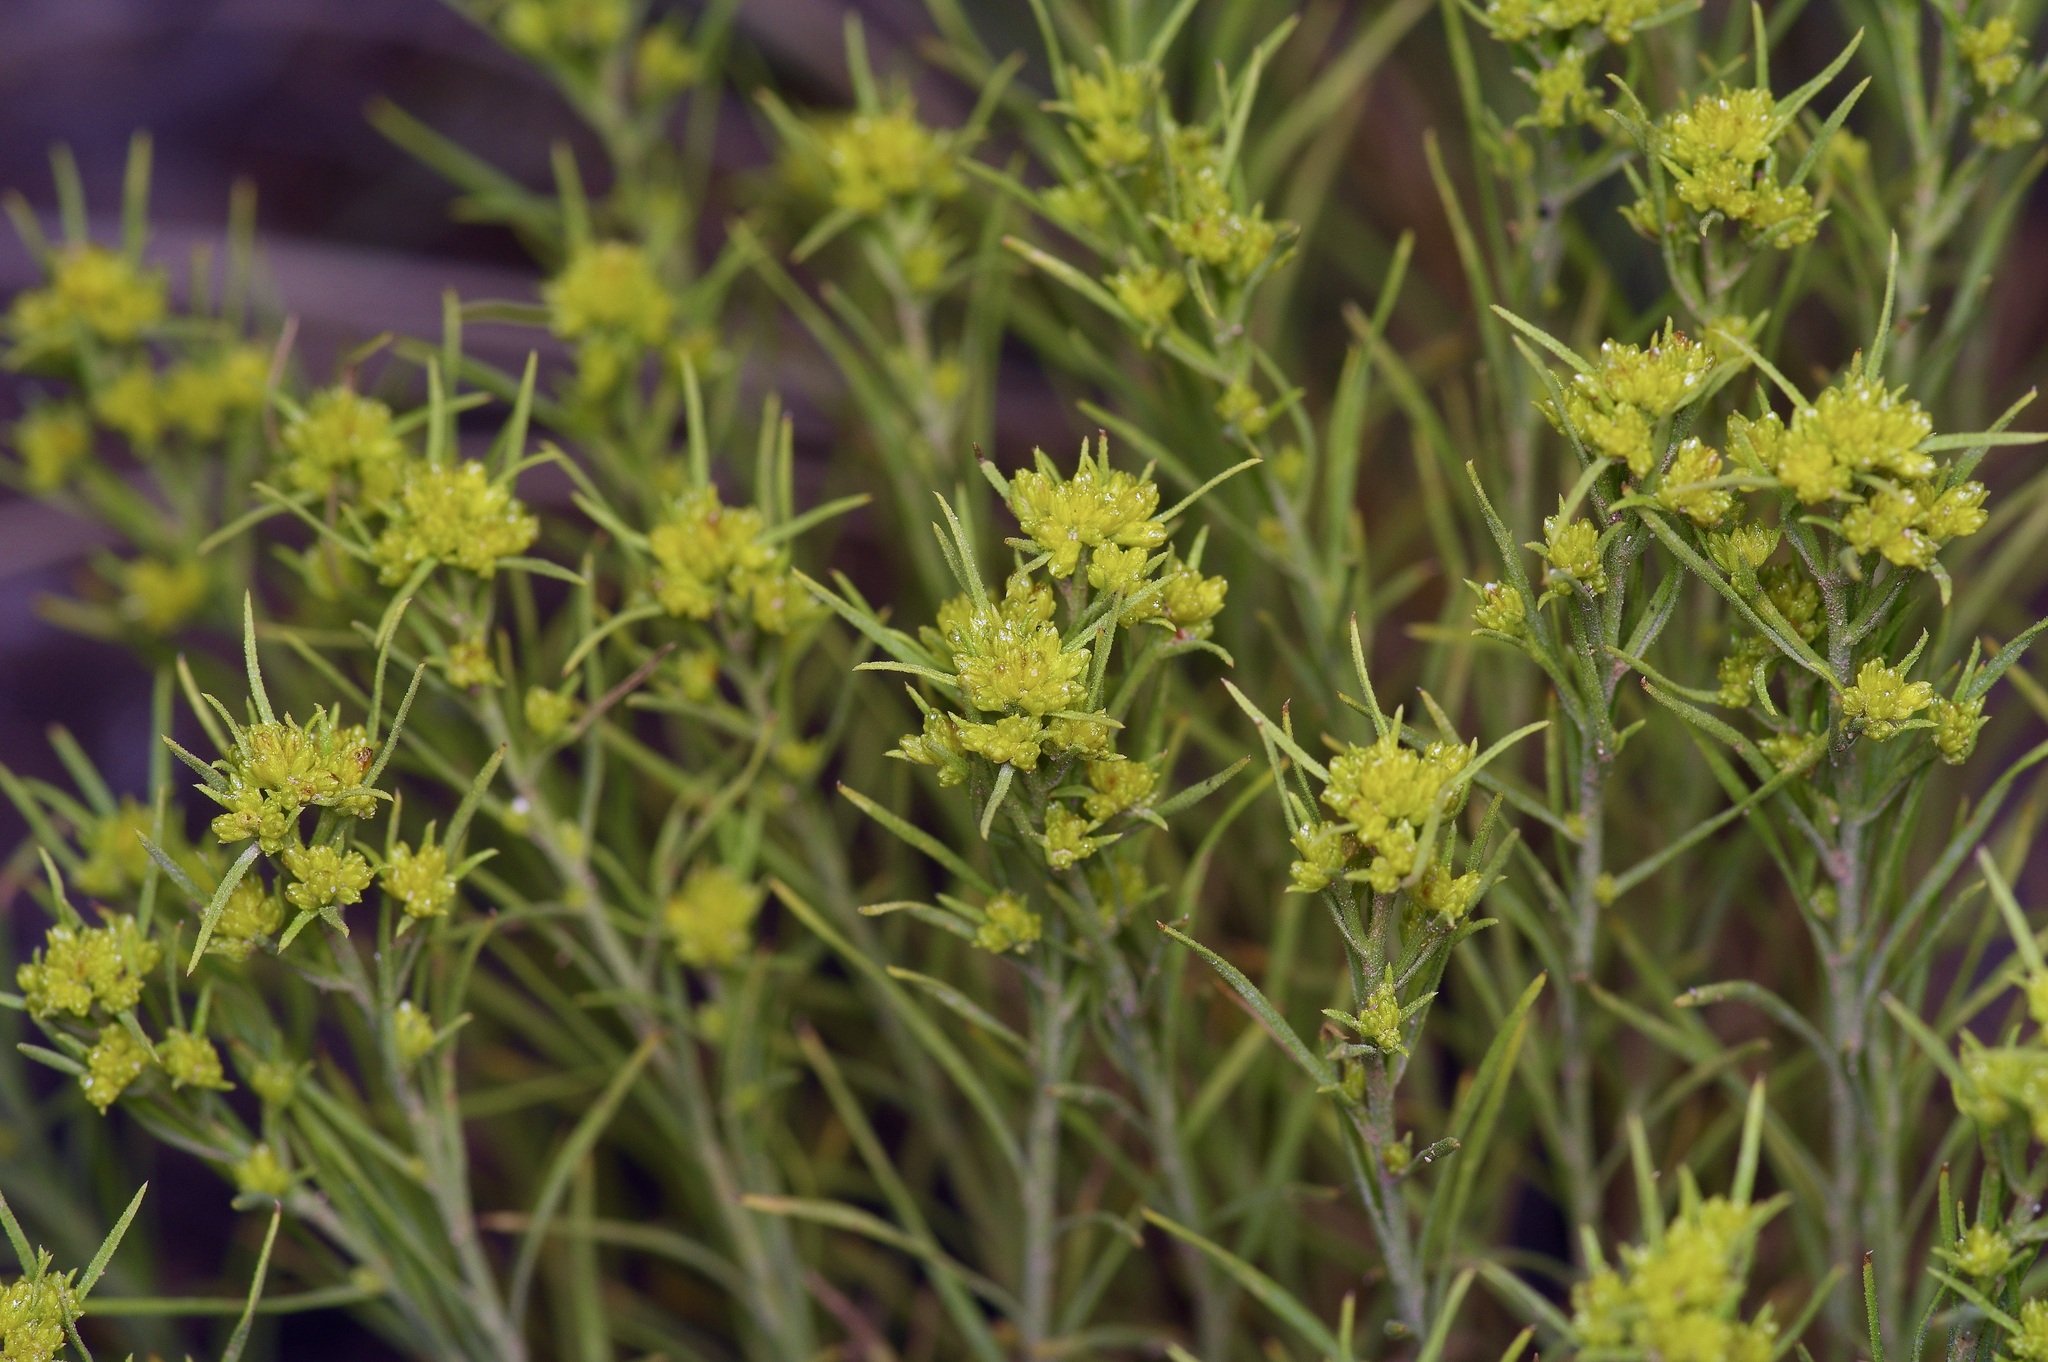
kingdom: Plantae
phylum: Tracheophyta
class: Magnoliopsida
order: Asterales
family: Asteraceae
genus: Chrysothamnus
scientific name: Chrysothamnus greenei
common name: Greene's rabbitbrush
